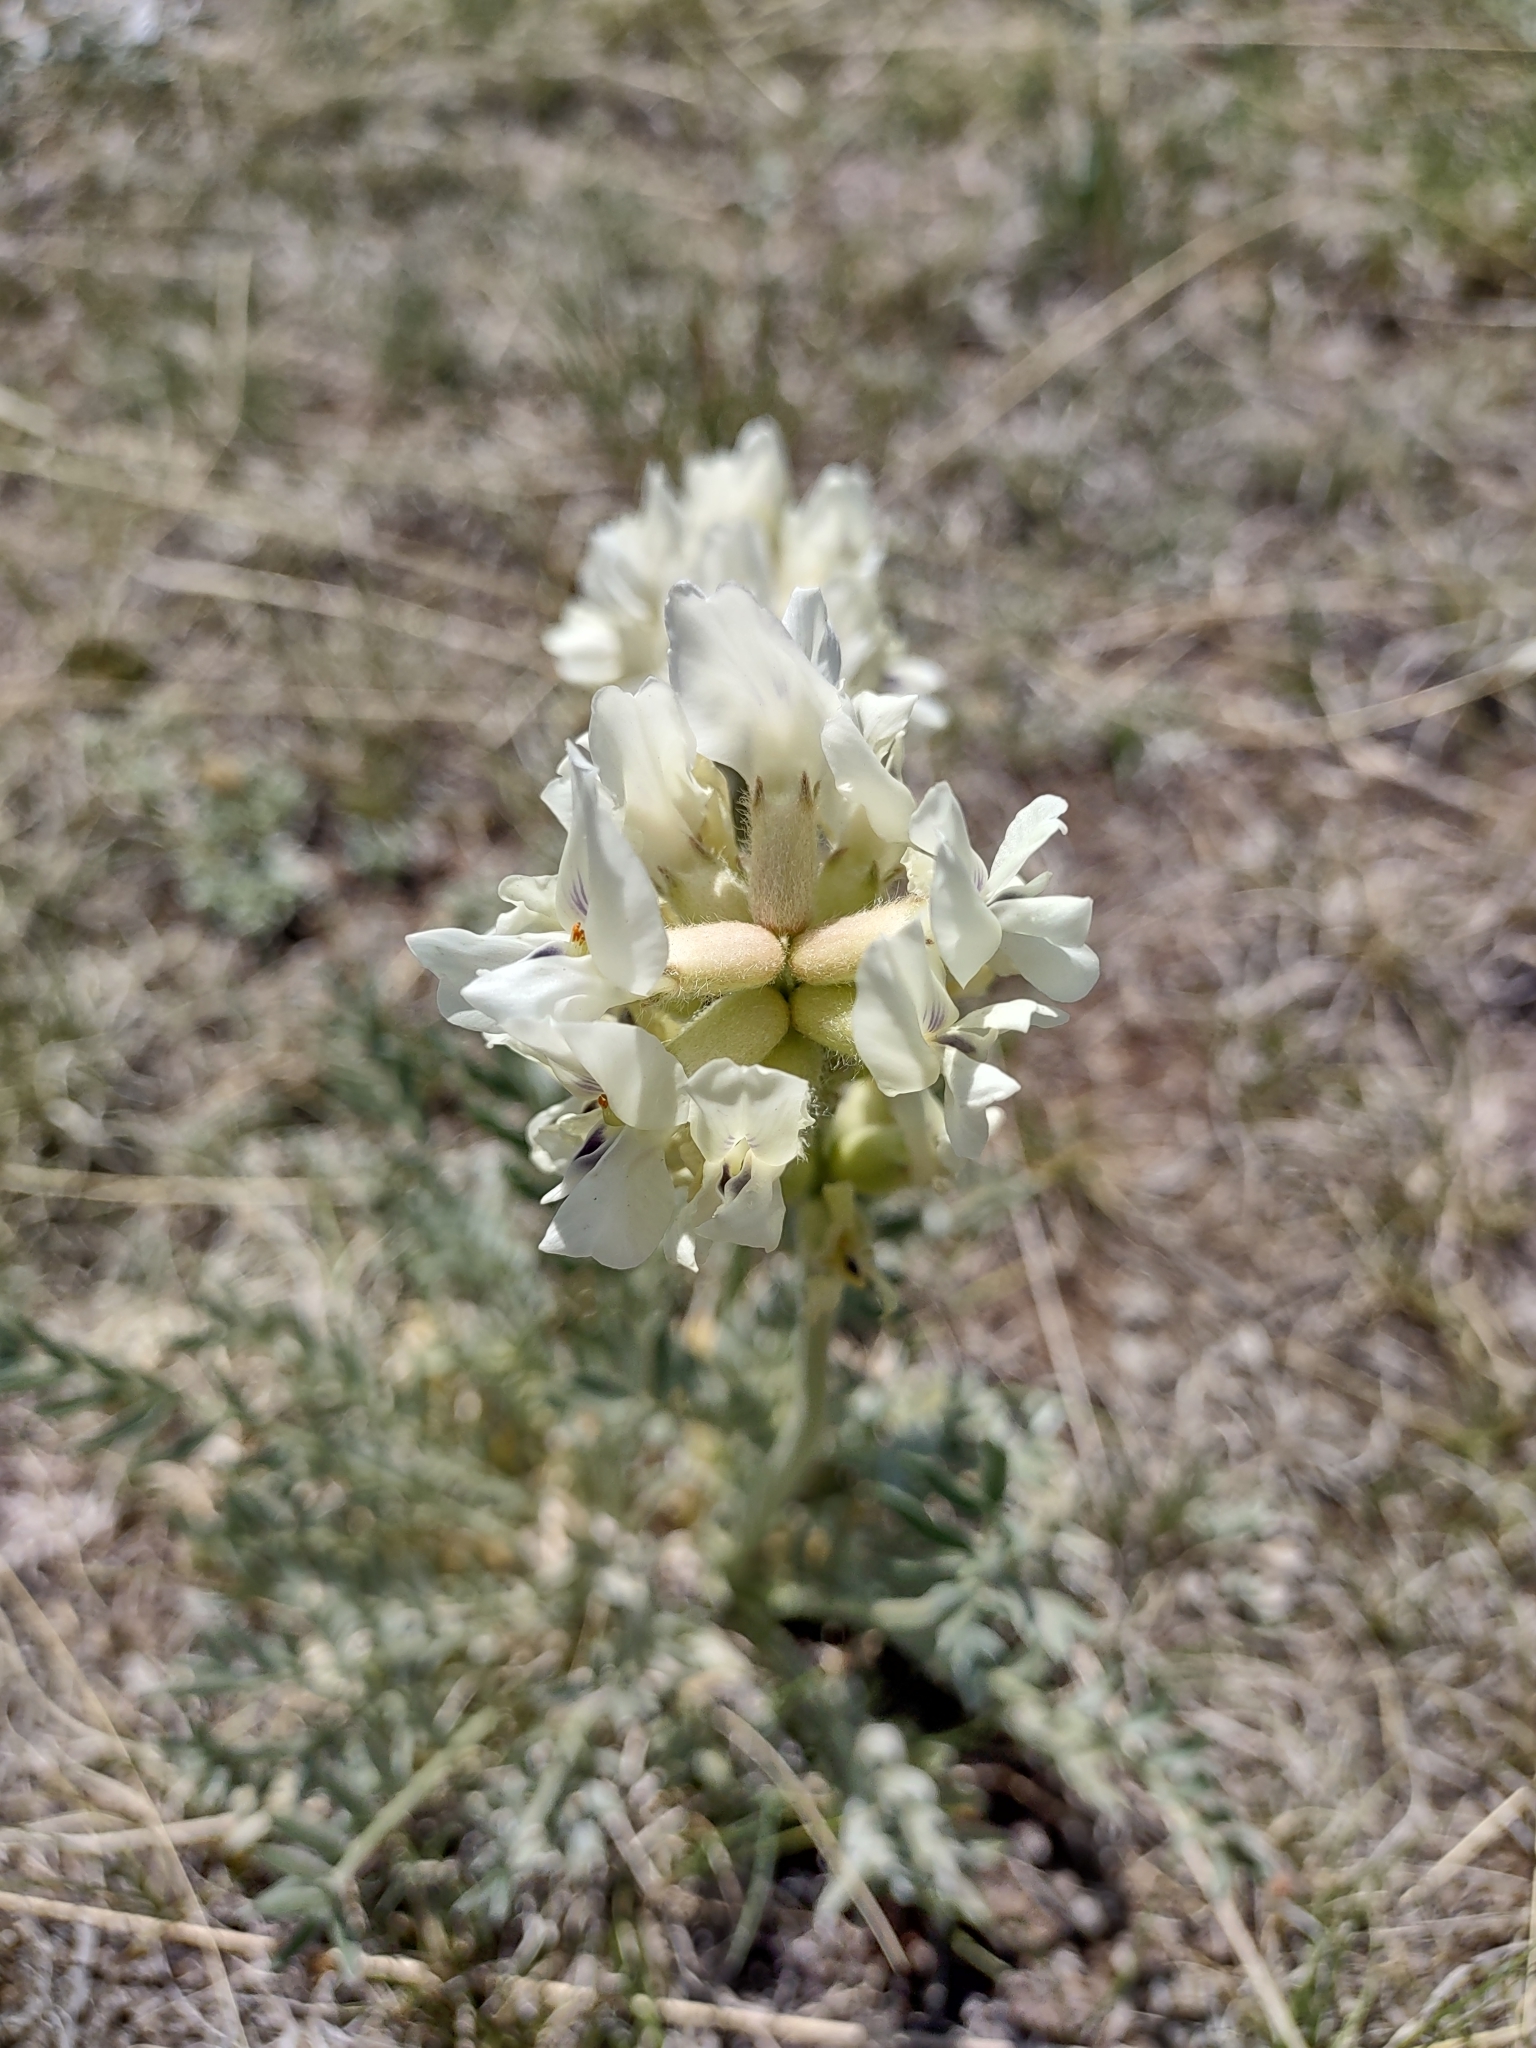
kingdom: Plantae
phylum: Tracheophyta
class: Magnoliopsida
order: Fabales
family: Fabaceae
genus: Oxytropis
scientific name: Oxytropis sericea
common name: Silky locoweed
